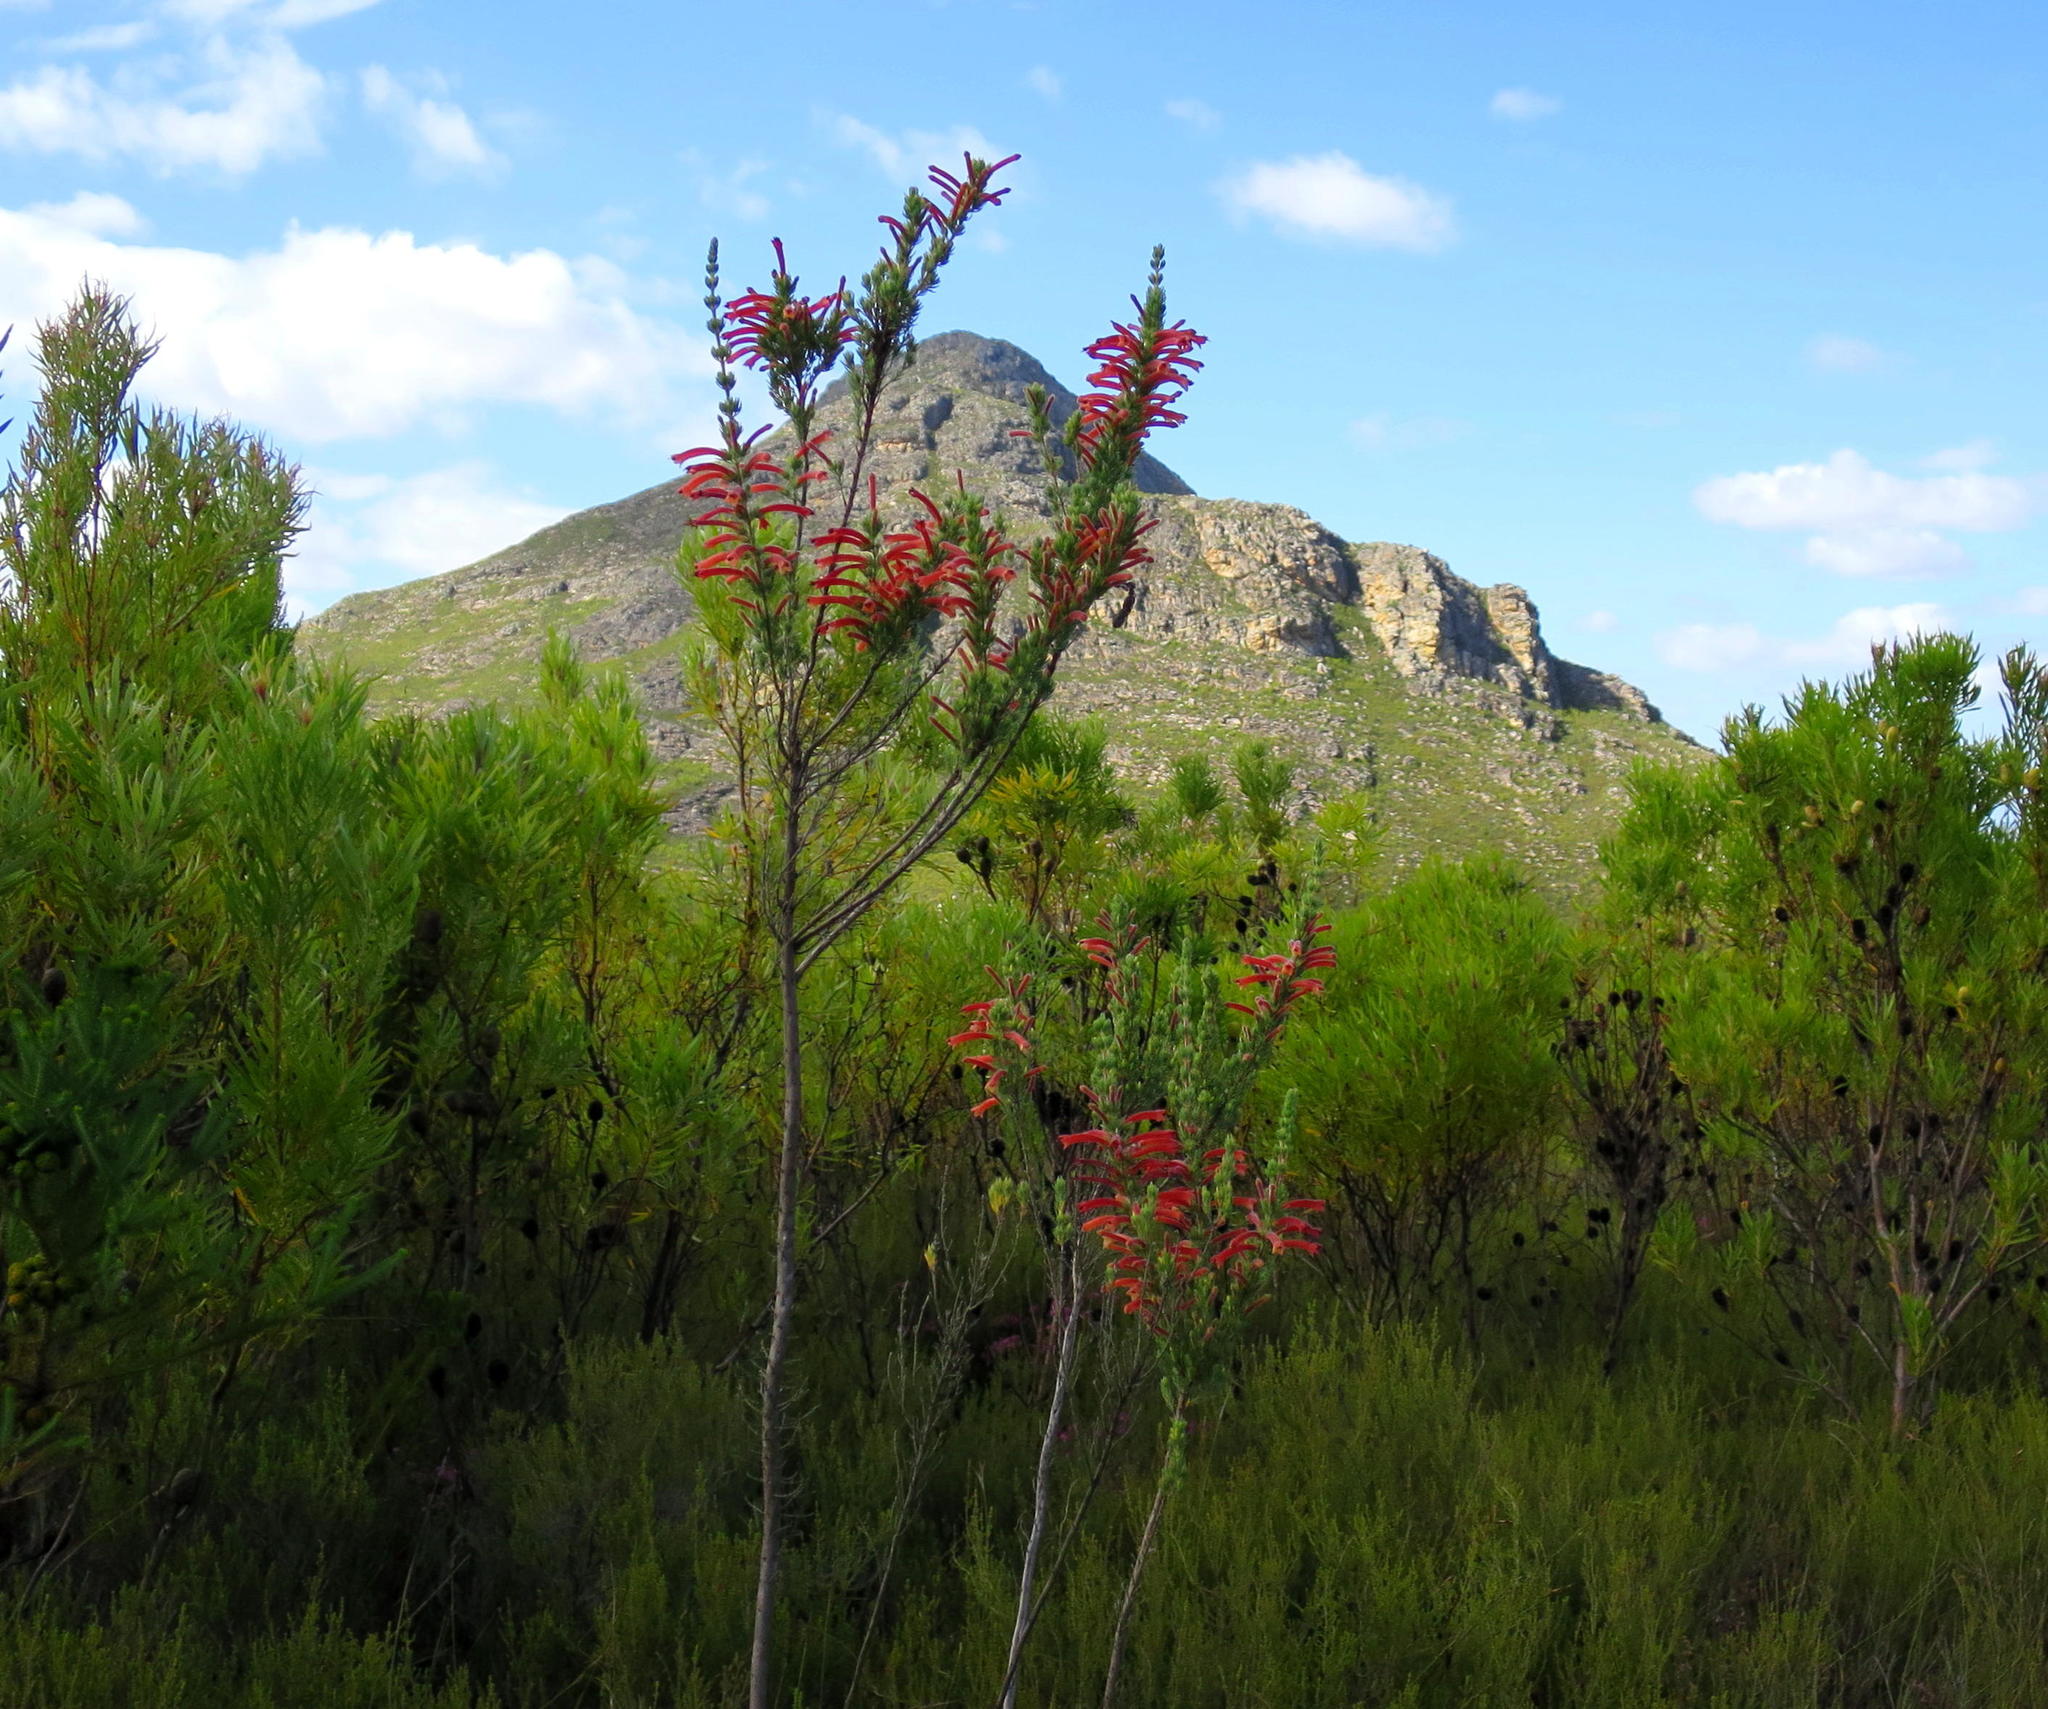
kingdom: Plantae
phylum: Tracheophyta
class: Magnoliopsida
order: Ericales
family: Ericaceae
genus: Erica
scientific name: Erica curviflora
